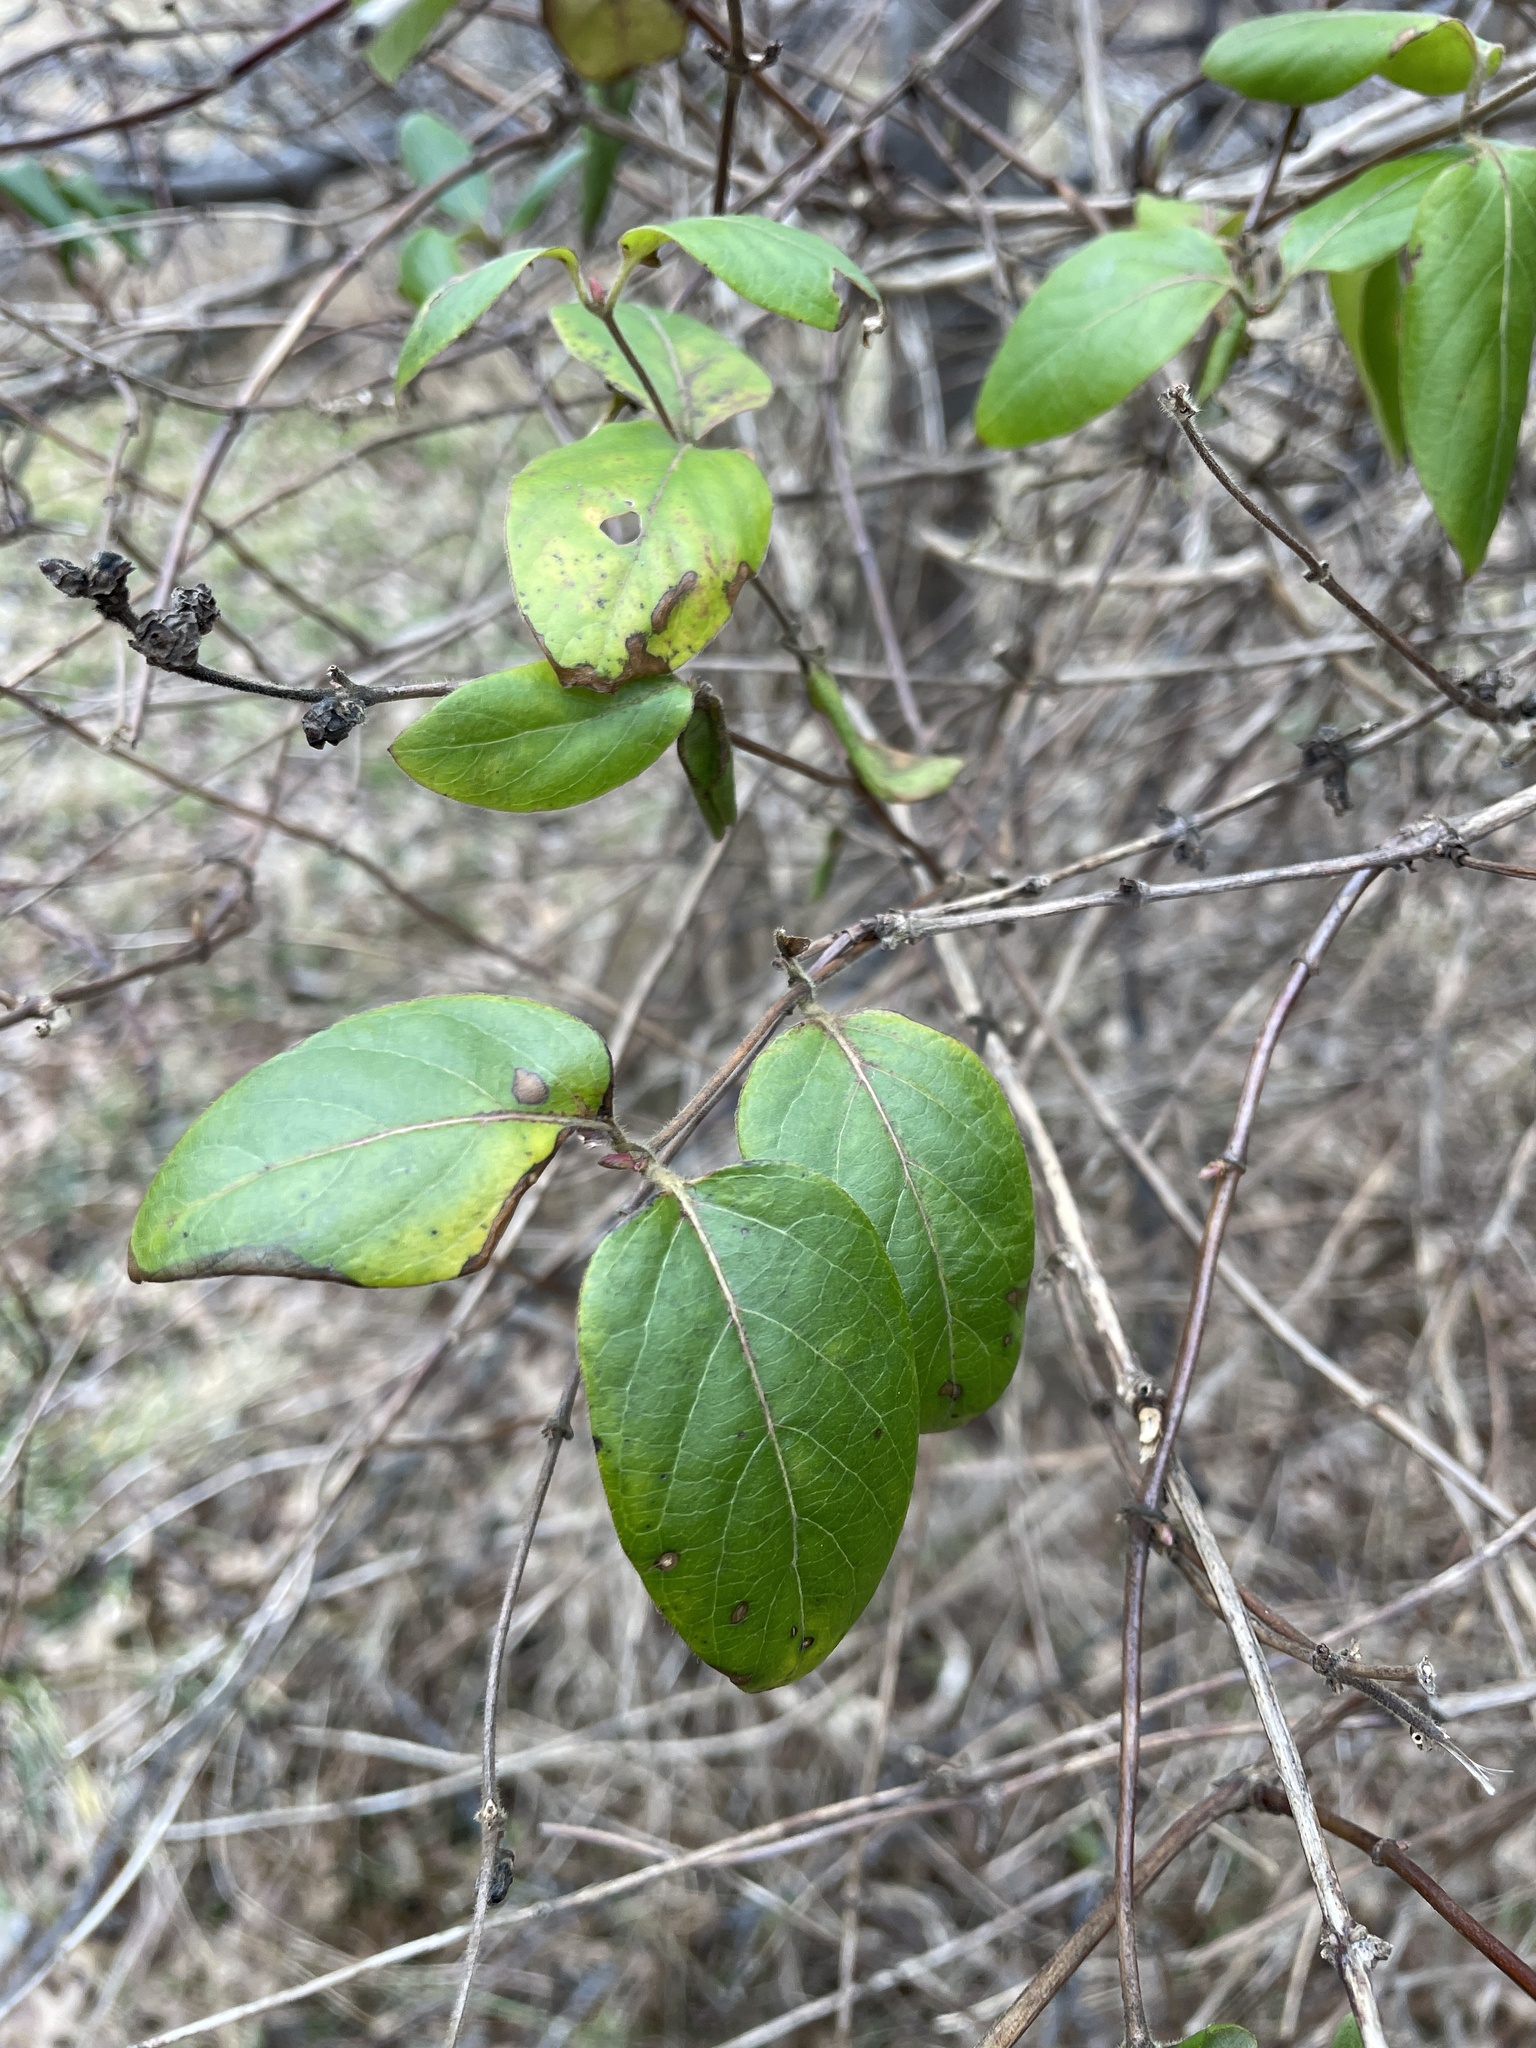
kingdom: Plantae
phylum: Tracheophyta
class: Magnoliopsida
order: Dipsacales
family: Caprifoliaceae
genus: Lonicera
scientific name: Lonicera japonica
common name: Japanese honeysuckle
